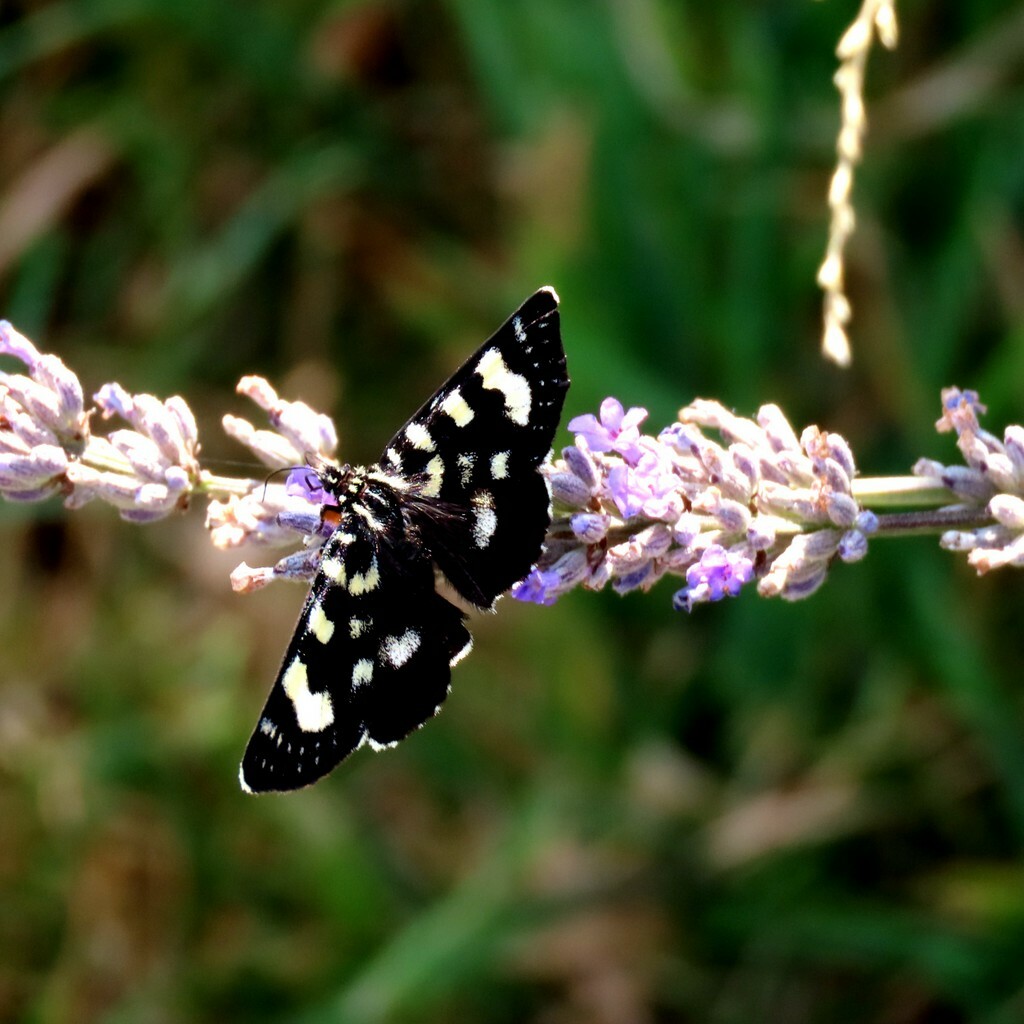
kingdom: Animalia
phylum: Arthropoda
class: Insecta
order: Lepidoptera
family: Noctuidae
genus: Phalaenoides
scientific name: Phalaenoides tristifica
